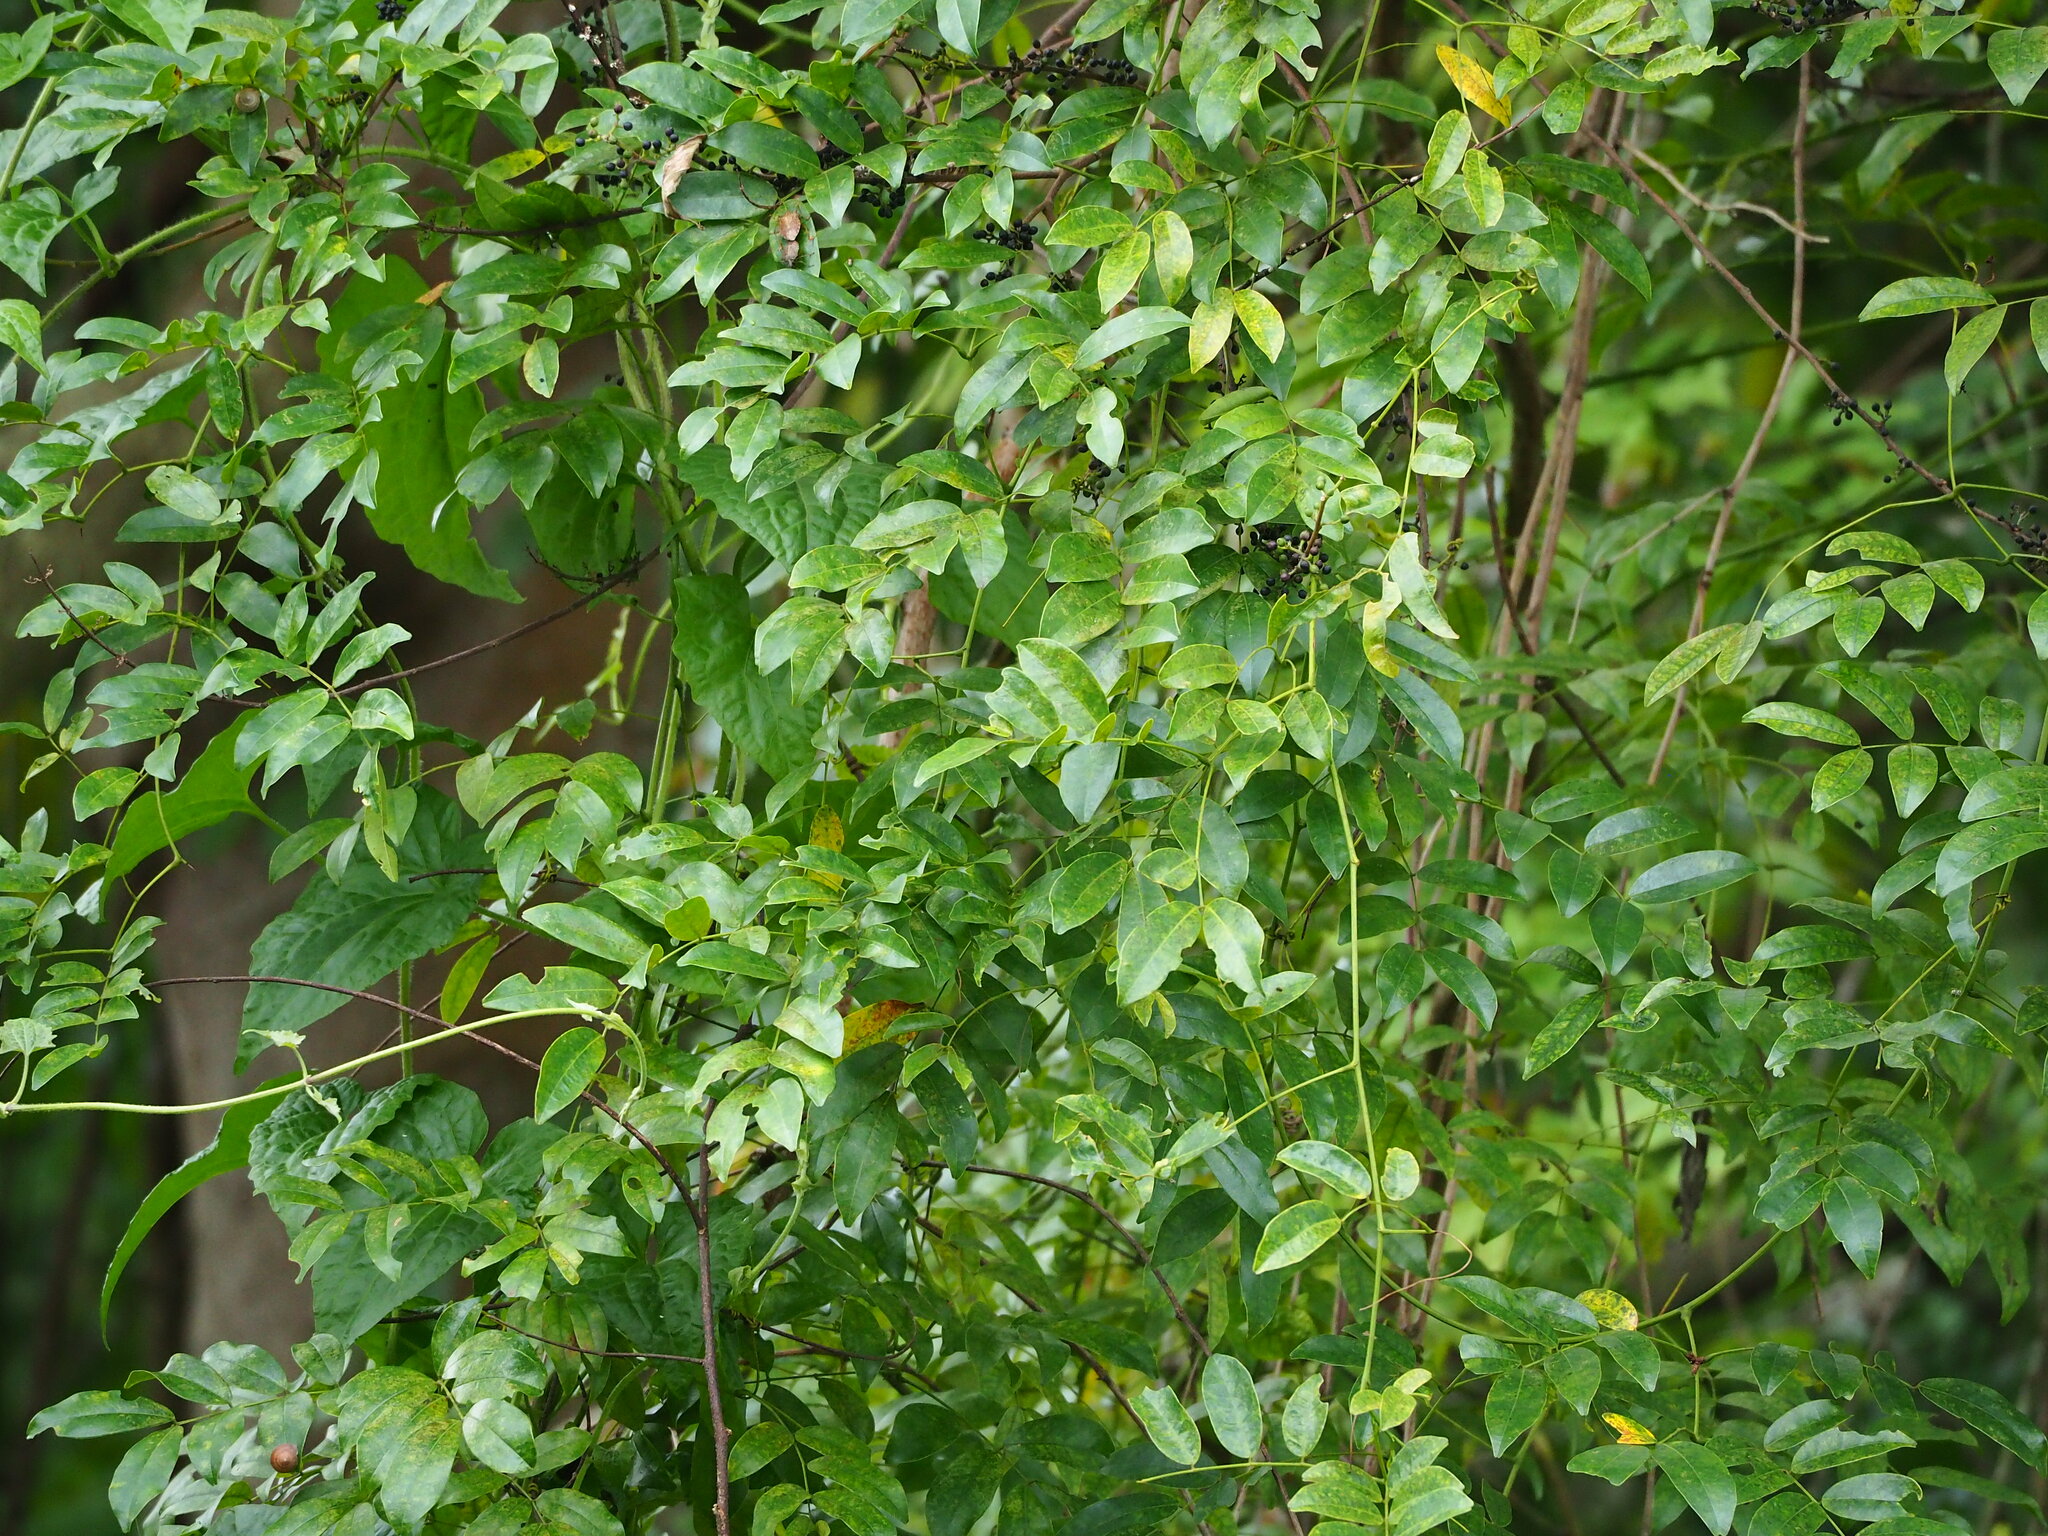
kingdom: Plantae
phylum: Tracheophyta
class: Magnoliopsida
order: Fabales
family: Fabaceae
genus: Wisteriopsis
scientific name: Wisteriopsis reticulata
